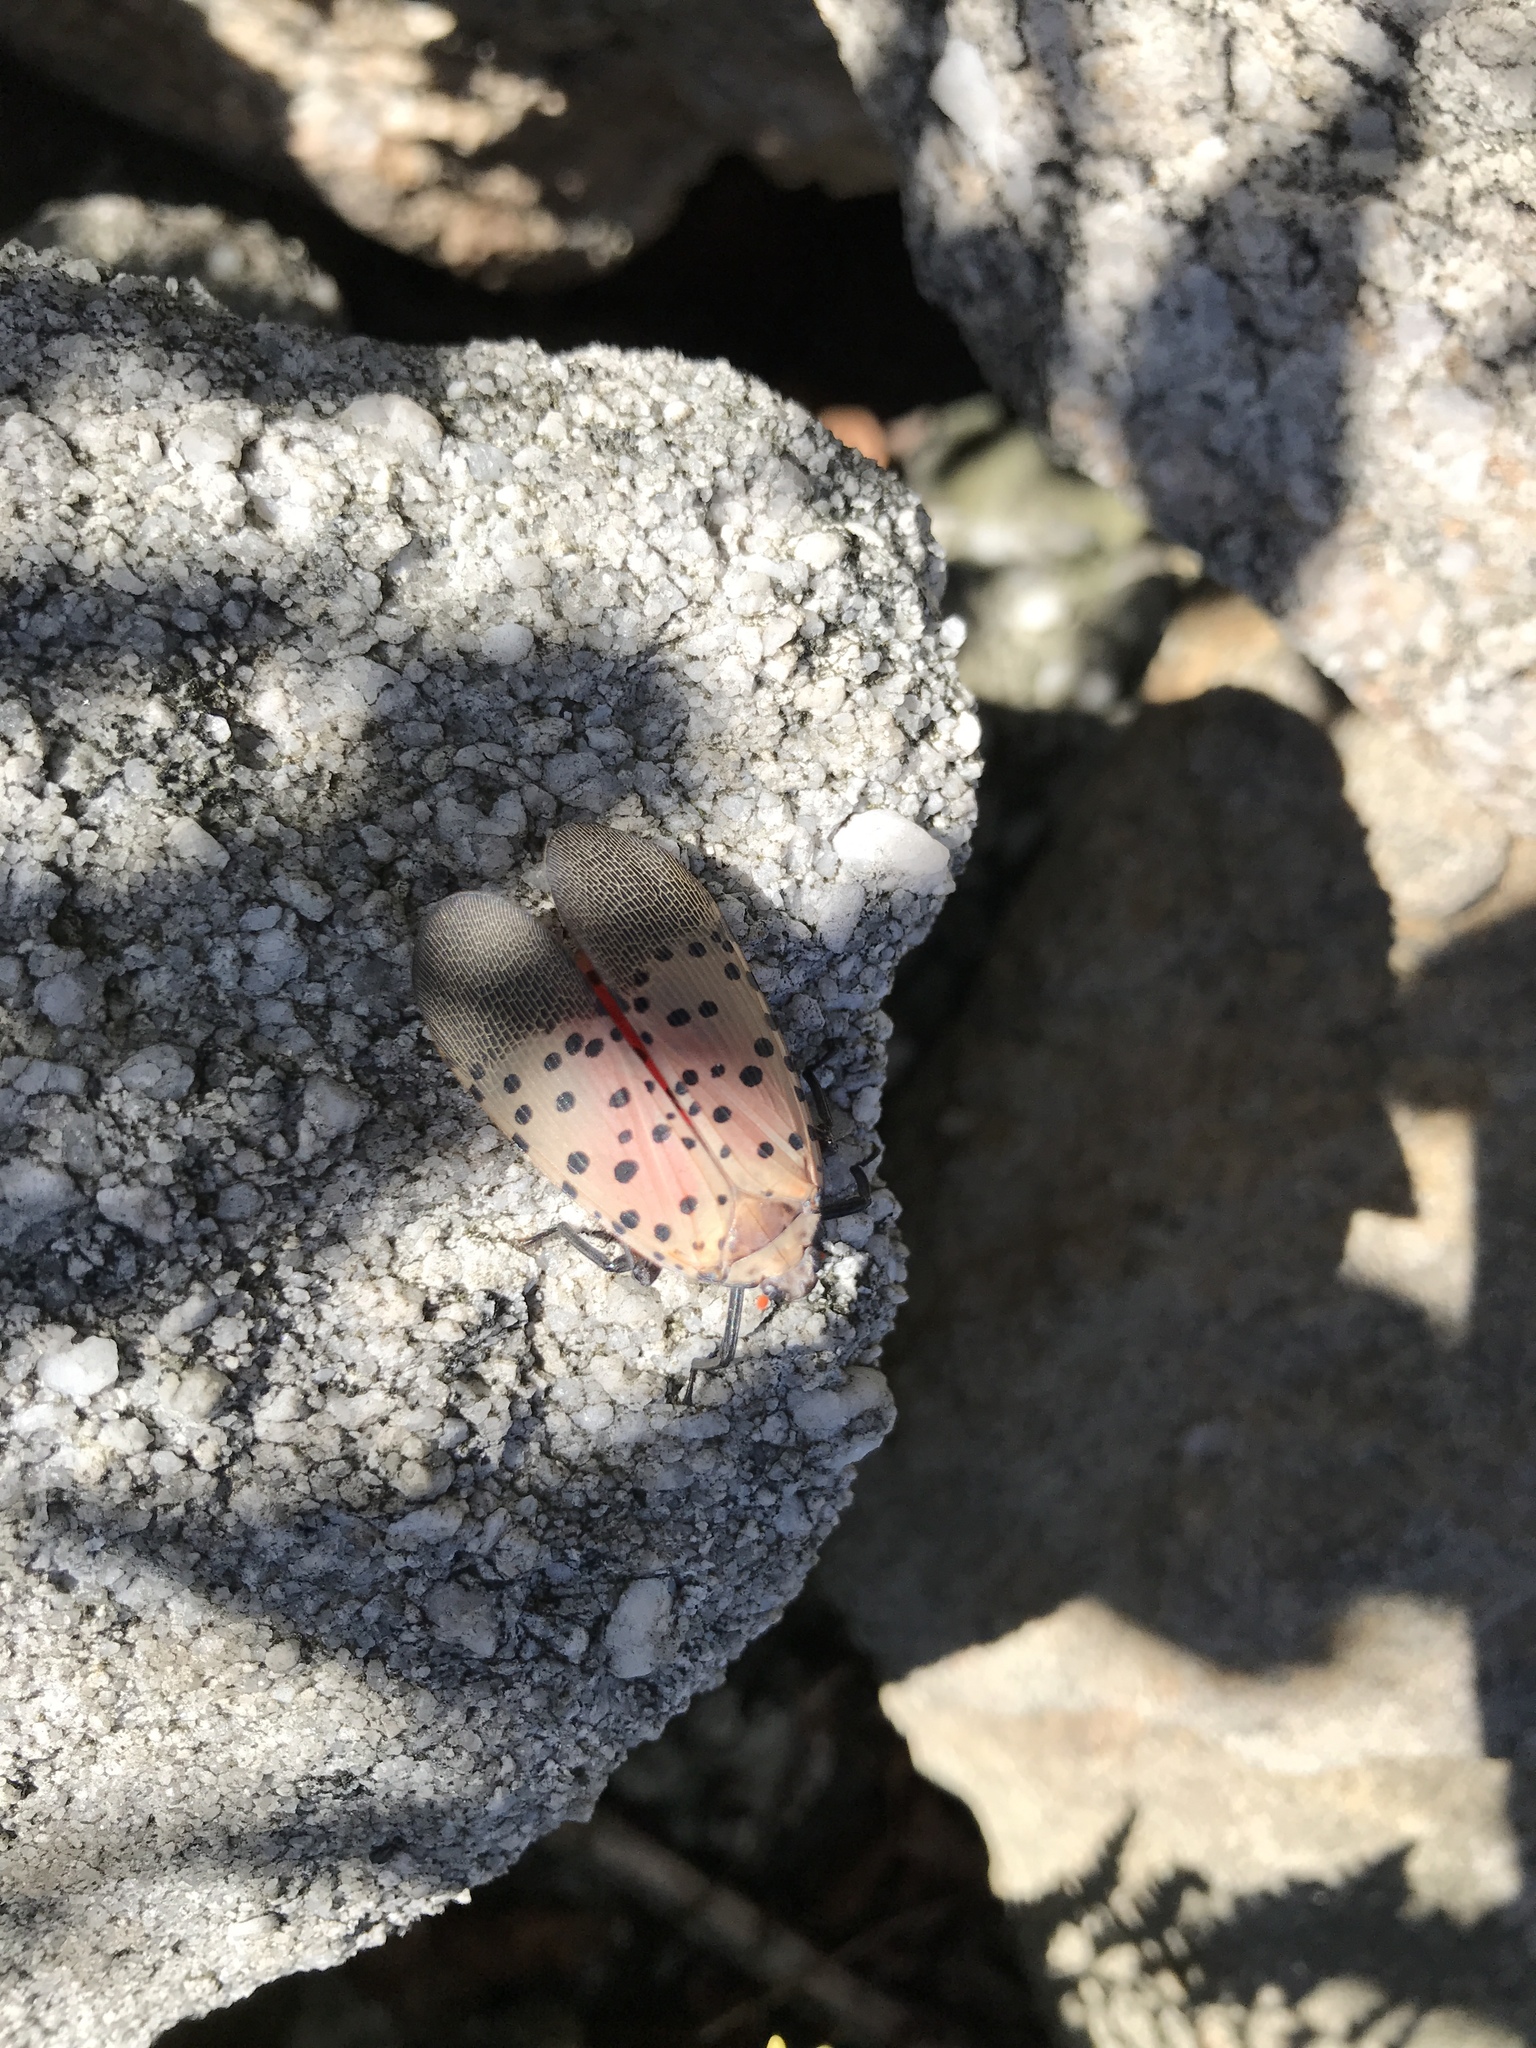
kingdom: Animalia
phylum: Arthropoda
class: Insecta
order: Hemiptera
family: Fulgoridae
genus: Lycorma
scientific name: Lycorma delicatula
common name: Spotted lanternfly
